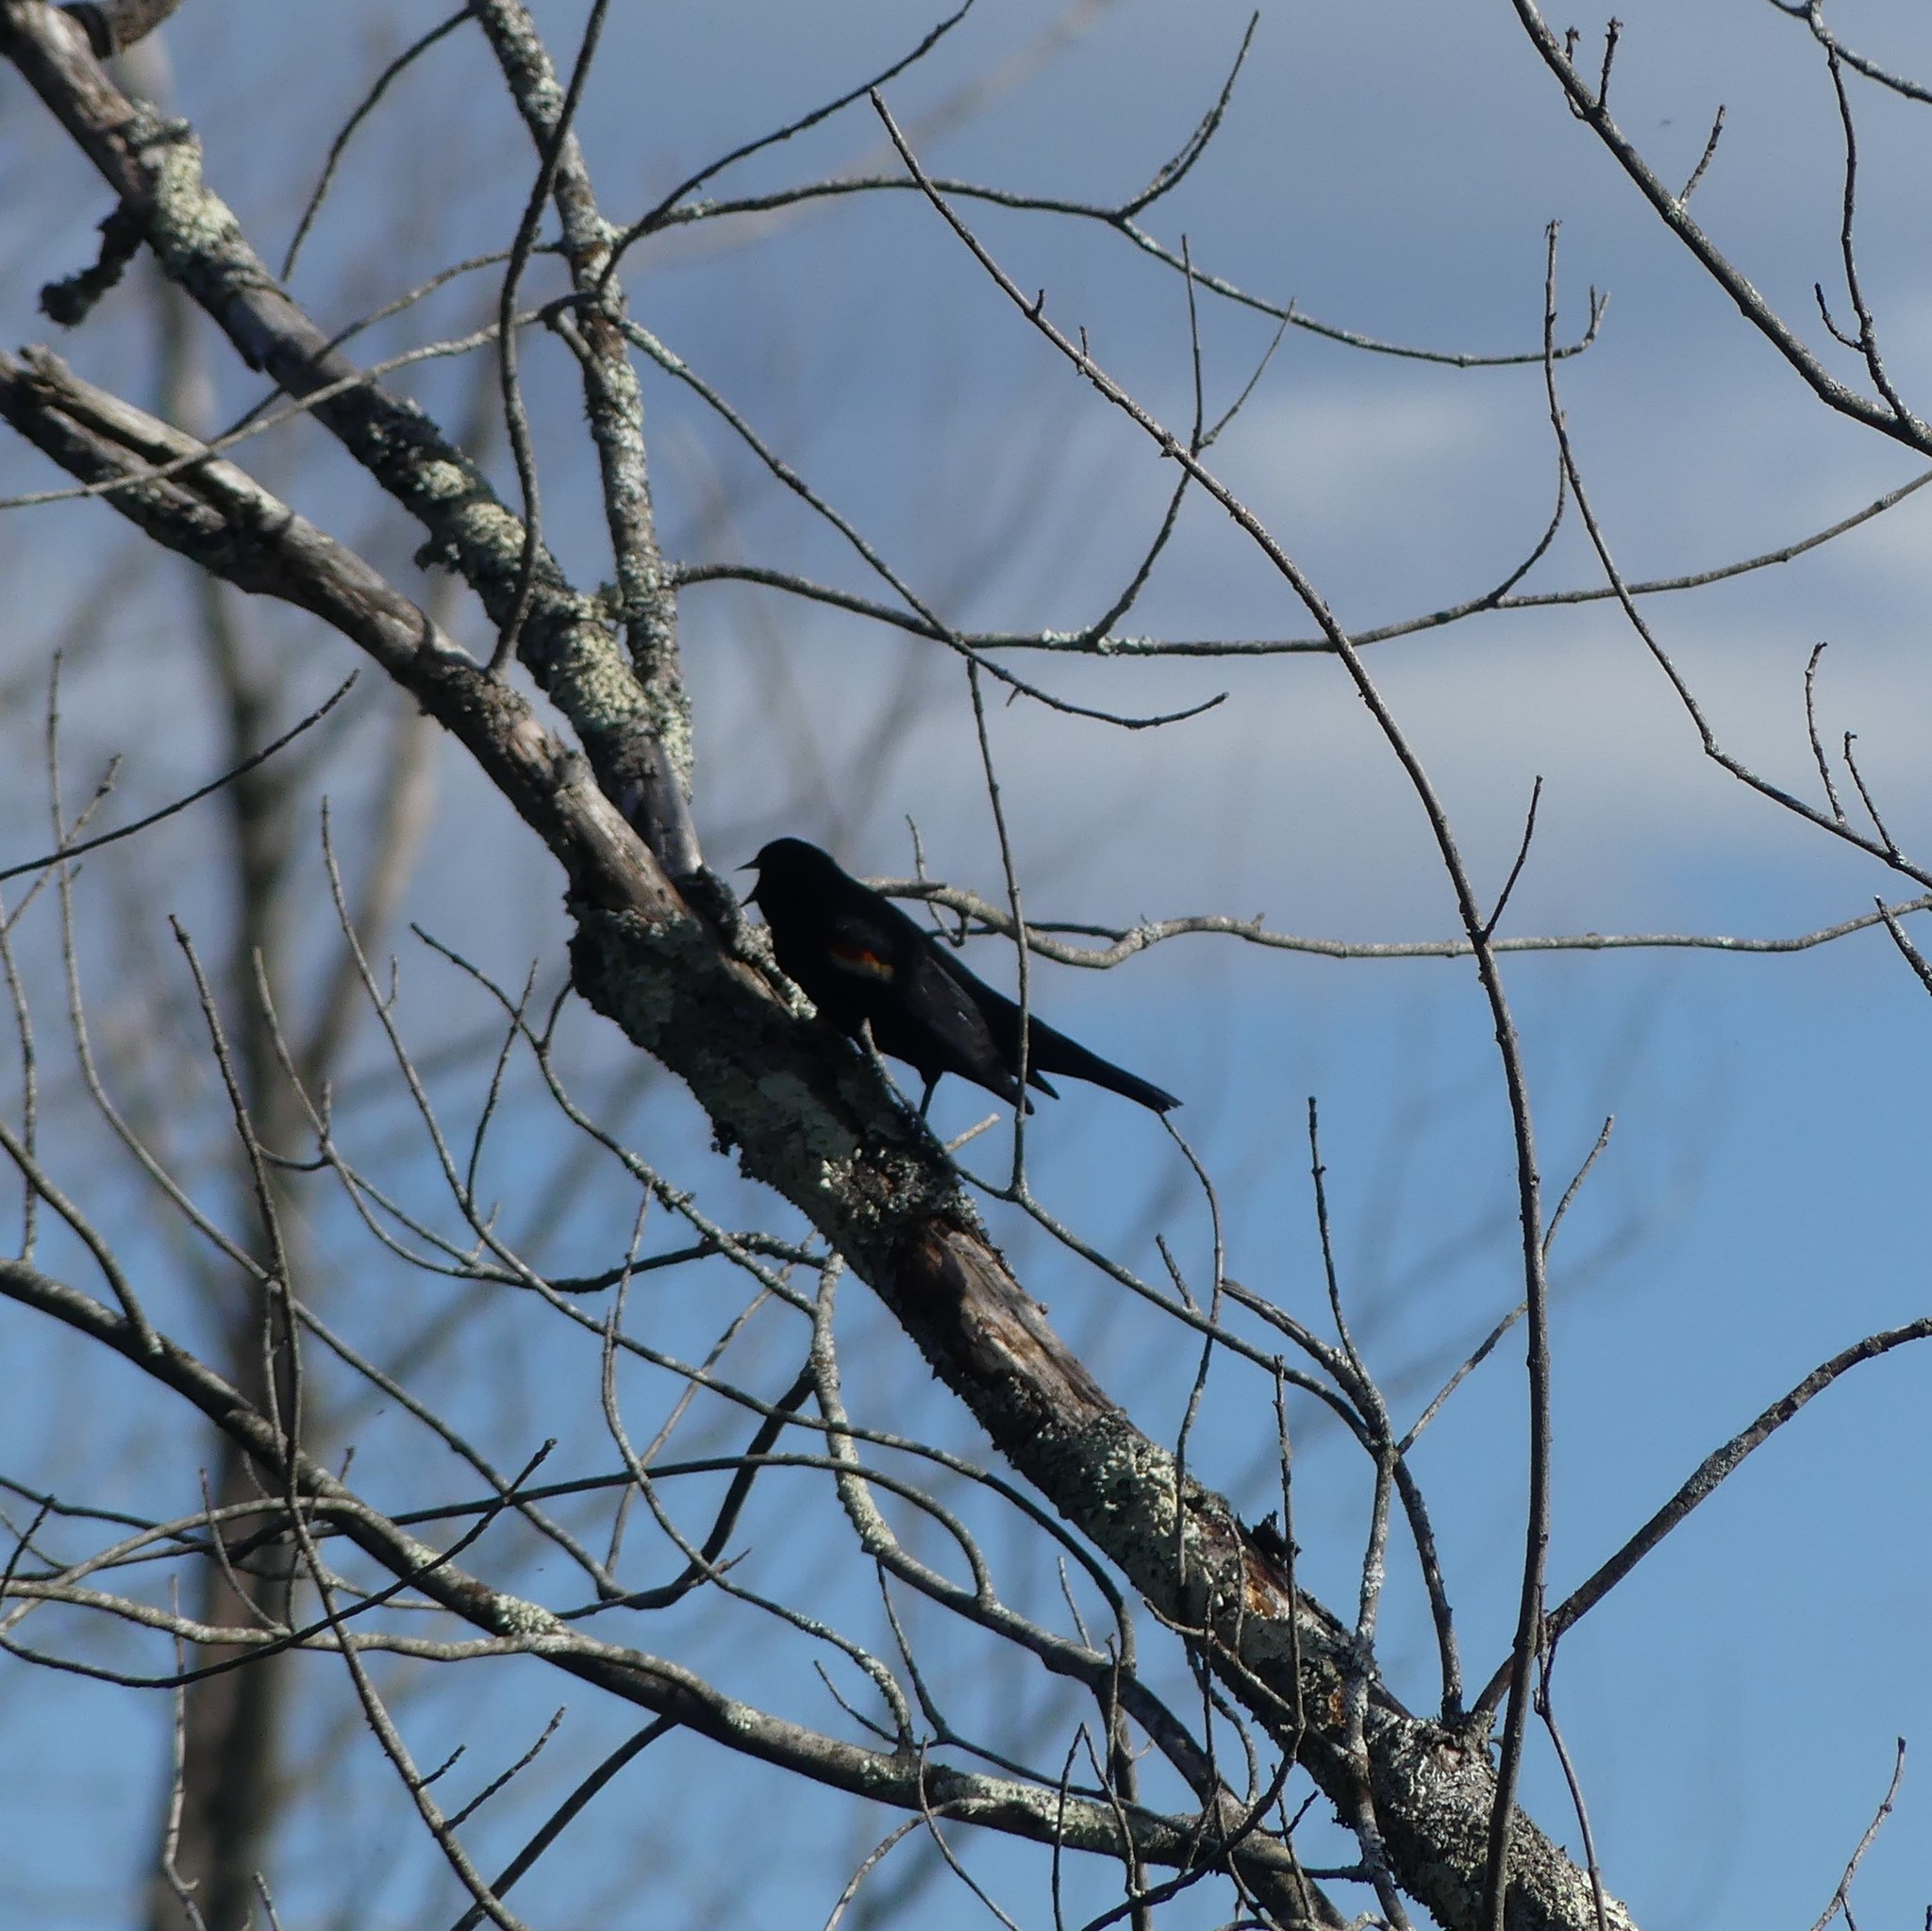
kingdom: Animalia
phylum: Chordata
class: Aves
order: Passeriformes
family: Icteridae
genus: Agelaius
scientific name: Agelaius phoeniceus
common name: Red-winged blackbird
